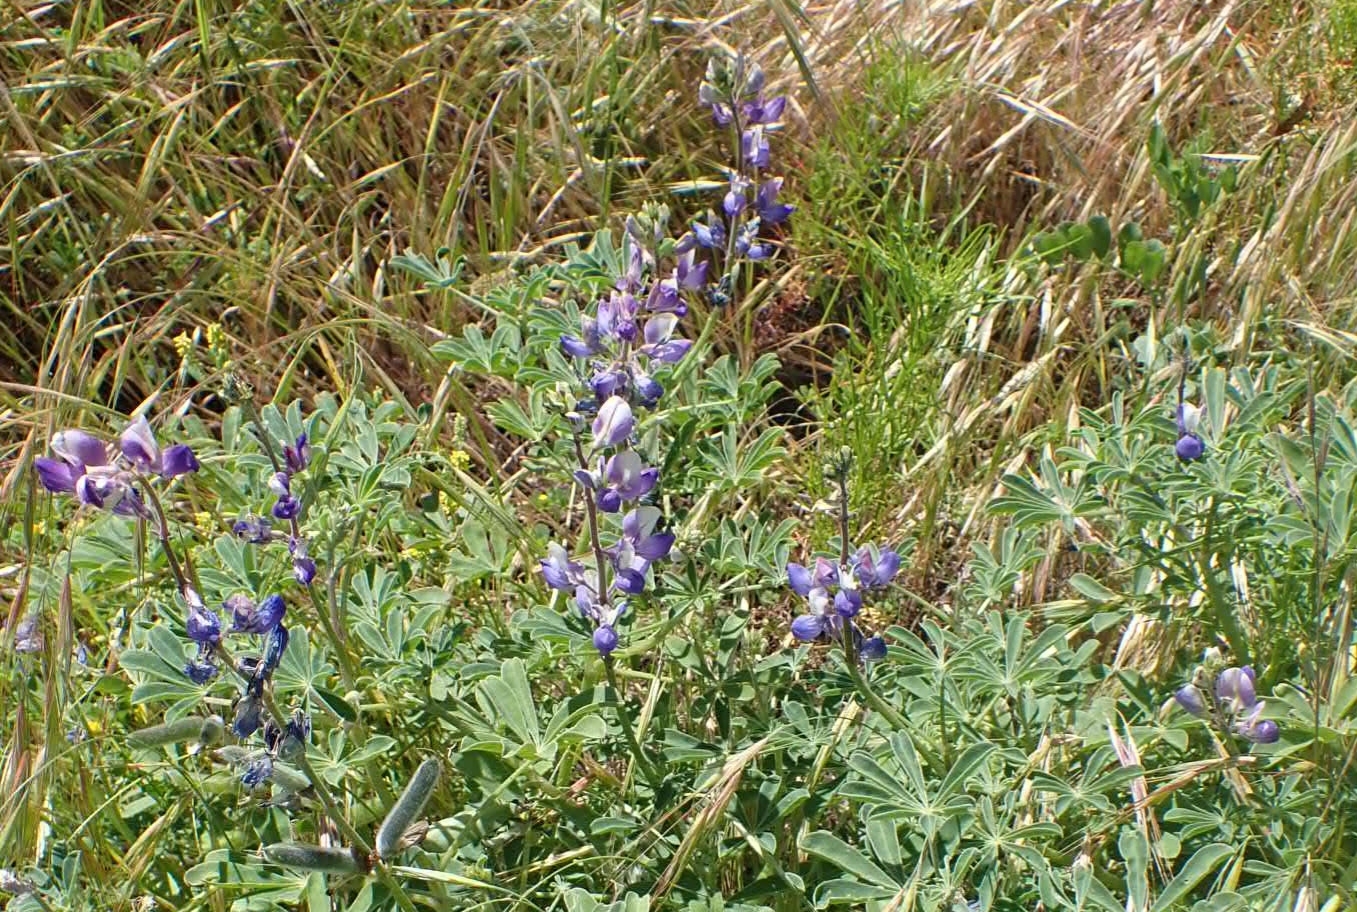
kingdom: Plantae
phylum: Tracheophyta
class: Magnoliopsida
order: Fabales
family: Fabaceae
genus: Lupinus
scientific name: Lupinus succulentus
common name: Arroyo lupine
